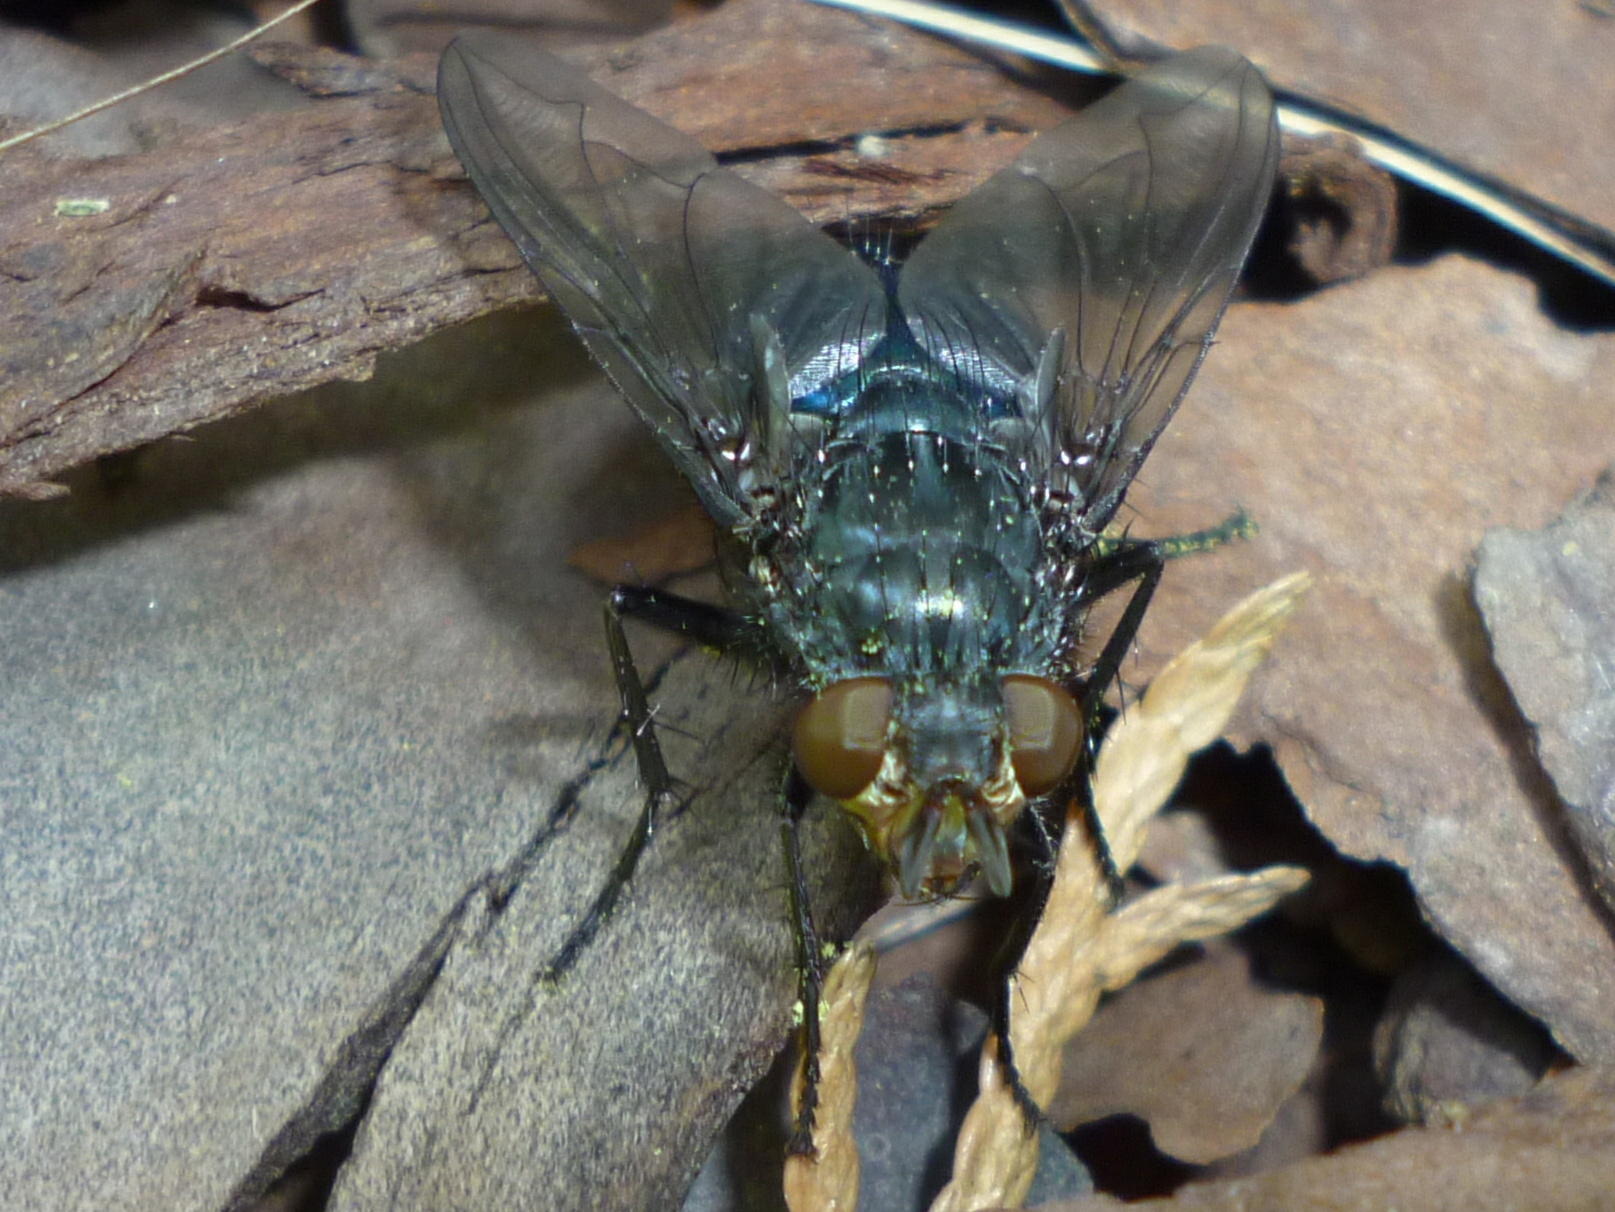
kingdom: Animalia
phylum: Arthropoda
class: Insecta
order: Diptera
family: Calliphoridae
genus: Cynomya
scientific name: Cynomya cadaverina
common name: Shiny blue bottle fly
